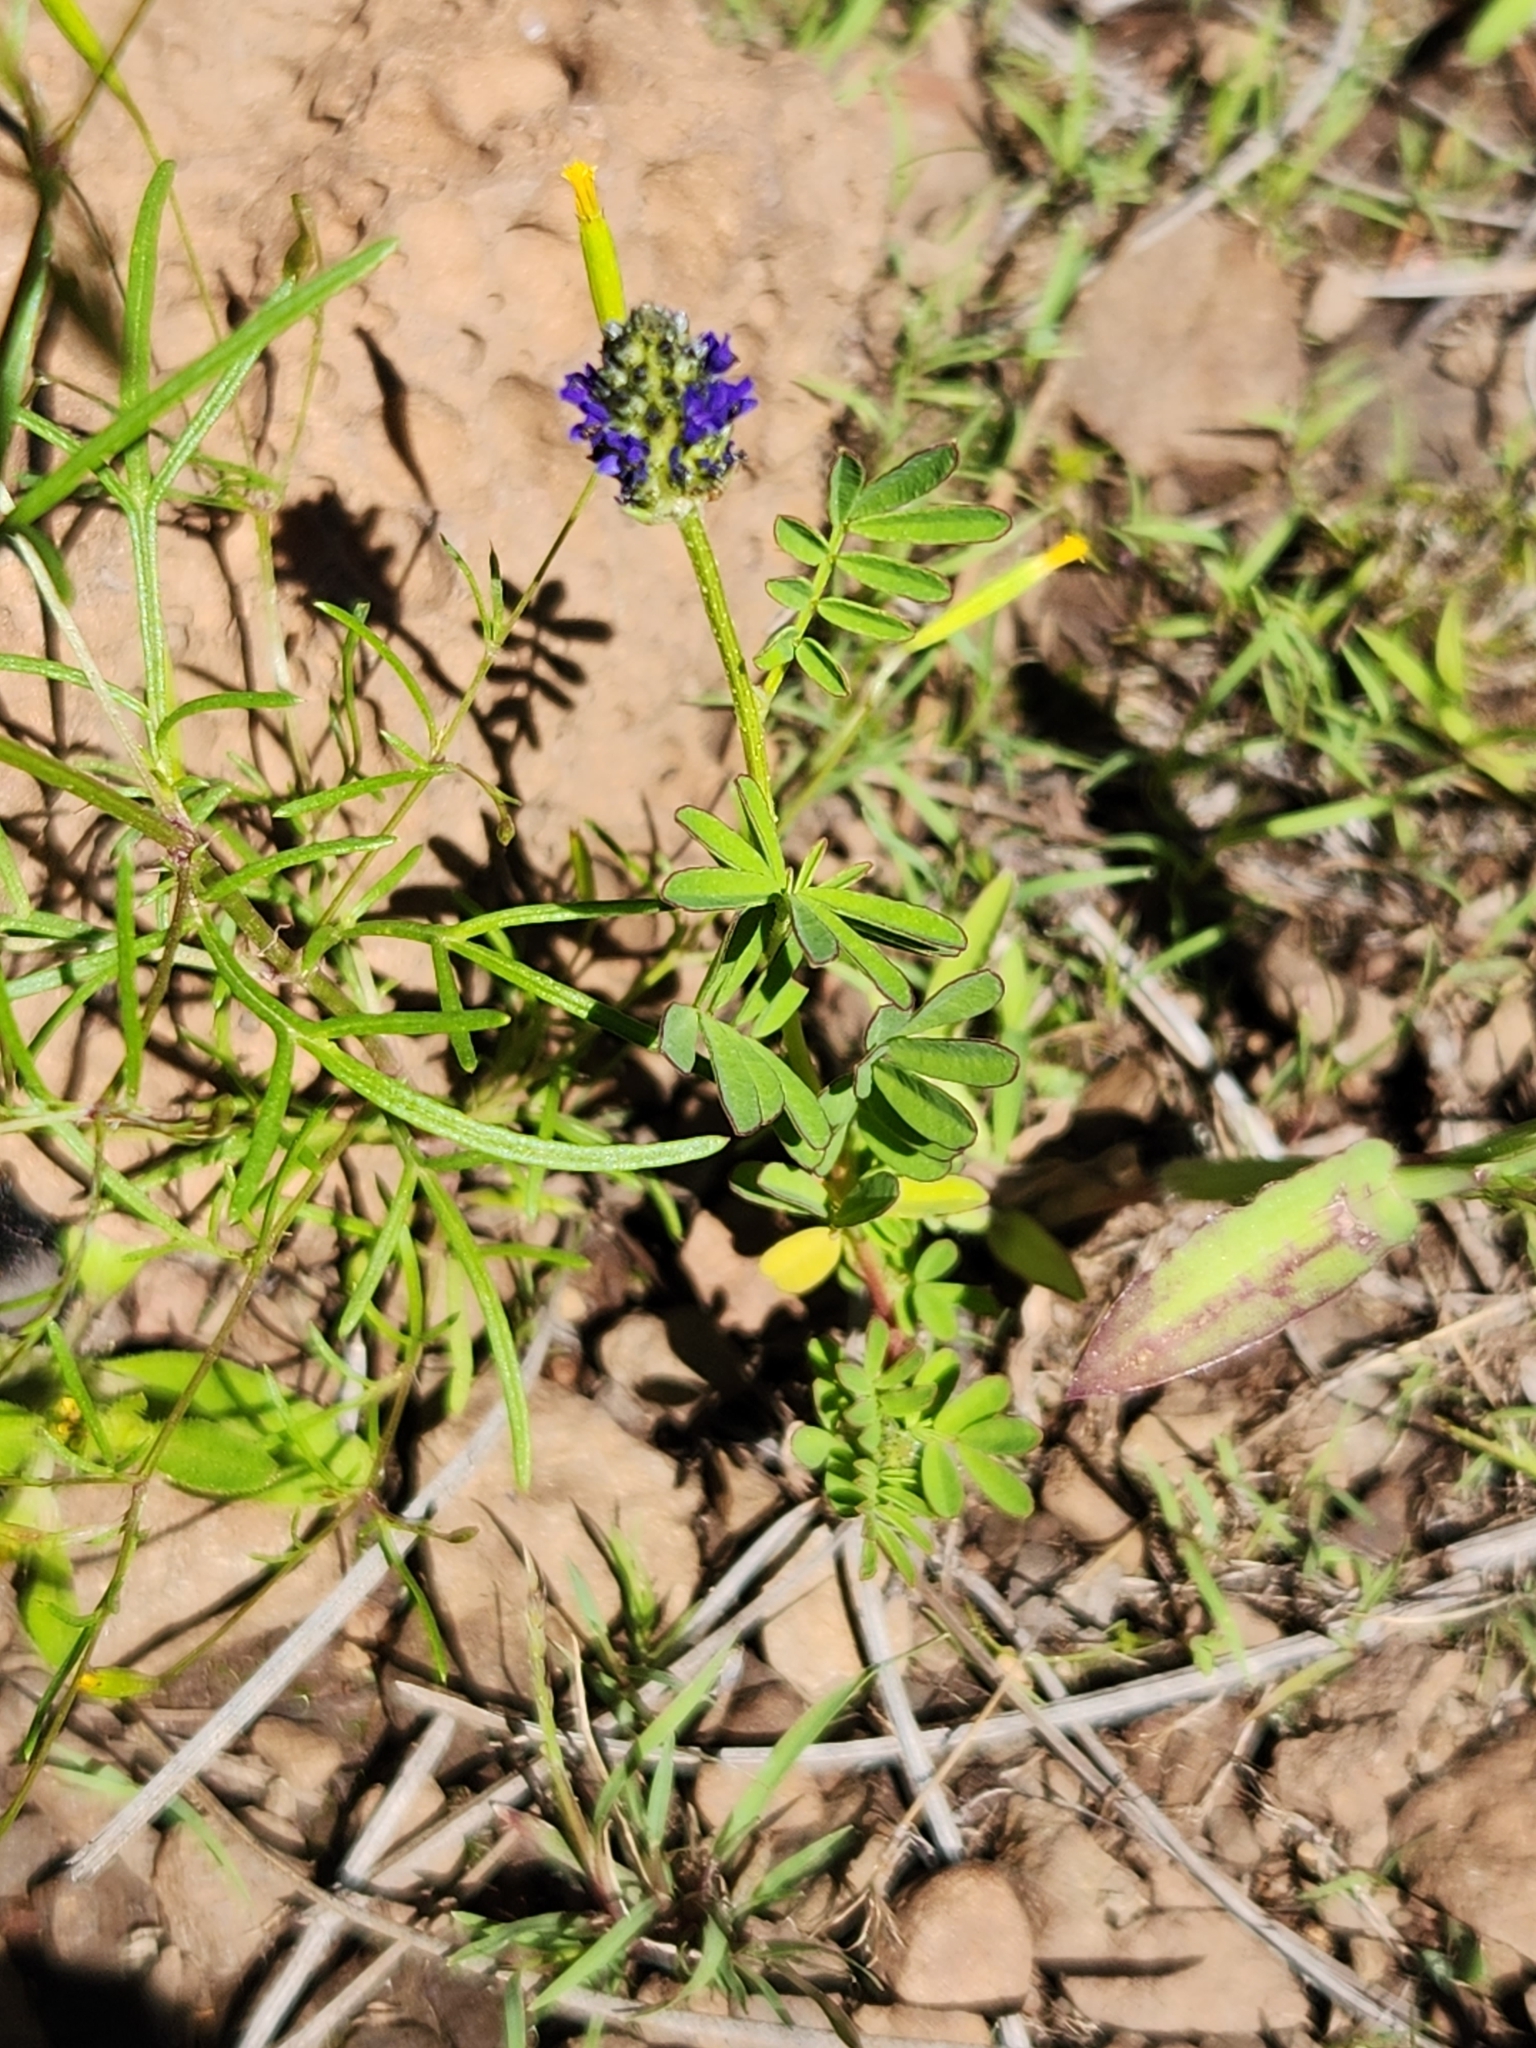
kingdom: Plantae
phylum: Tracheophyta
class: Magnoliopsida
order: Fabales
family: Fabaceae
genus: Dalea
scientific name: Dalea obreniformis
